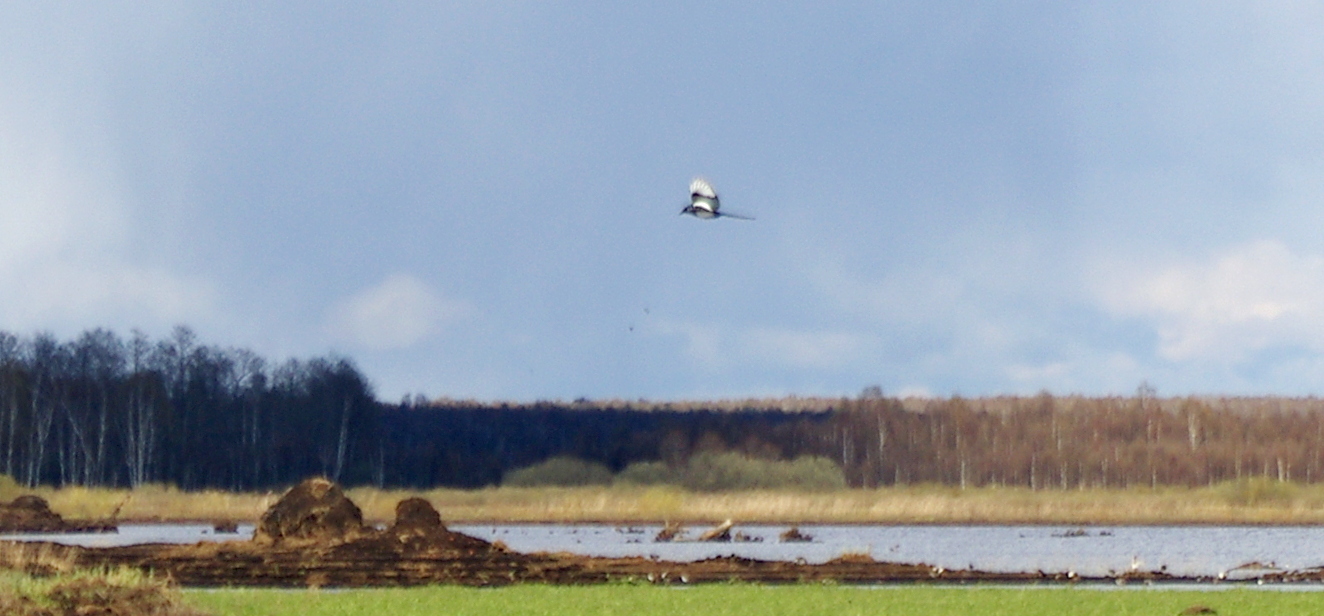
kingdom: Animalia
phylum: Chordata
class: Aves
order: Passeriformes
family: Corvidae
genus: Pica
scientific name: Pica pica
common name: Eurasian magpie
